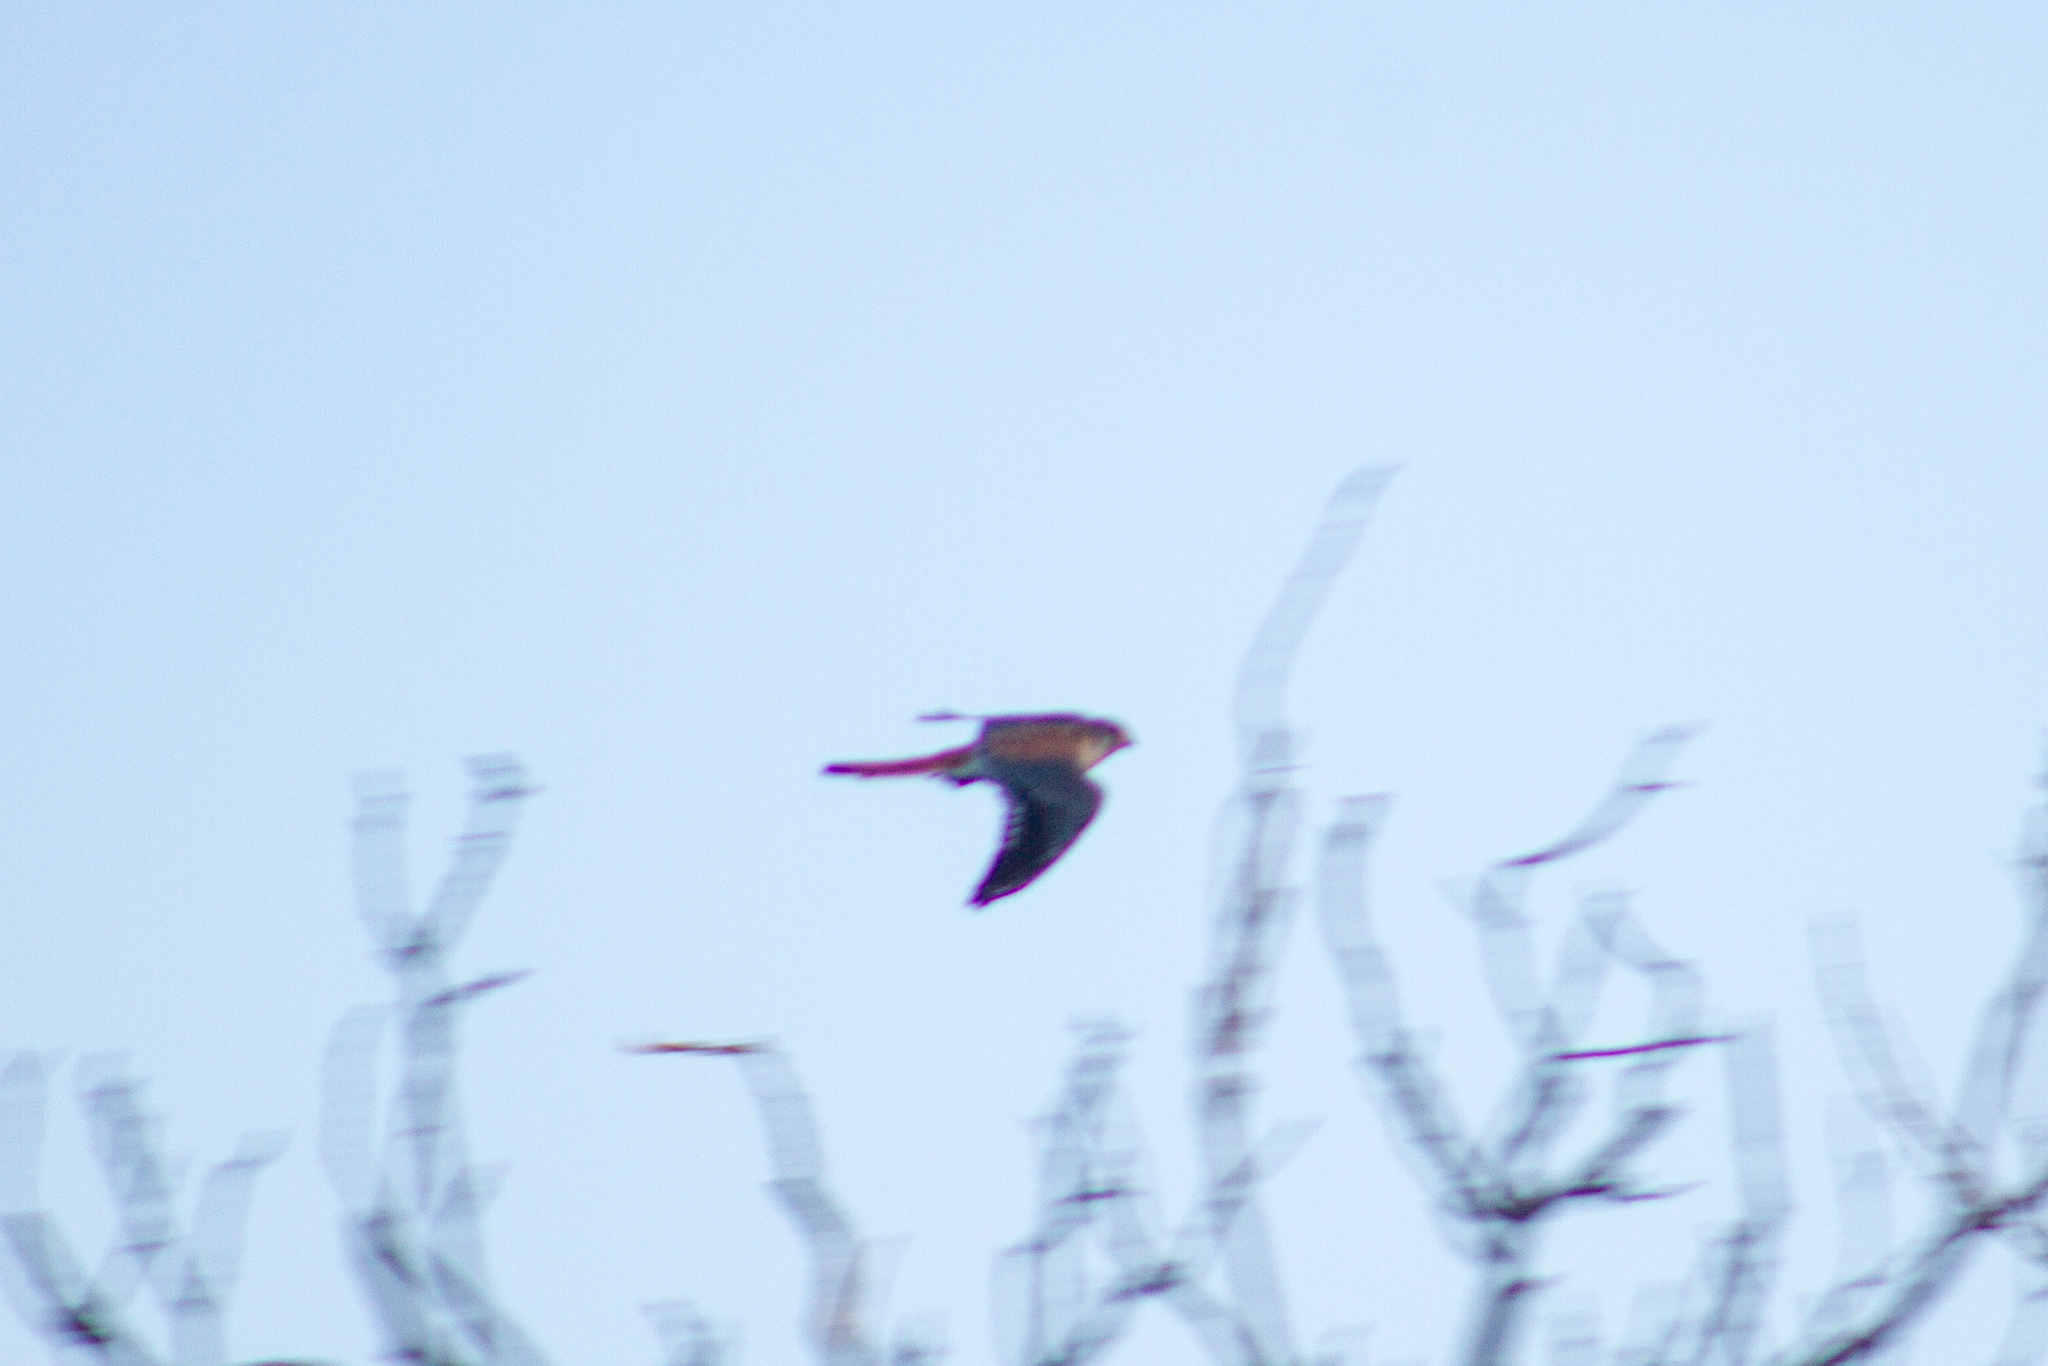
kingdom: Animalia
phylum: Chordata
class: Aves
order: Falconiformes
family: Falconidae
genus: Falco
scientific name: Falco sparverius
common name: American kestrel
